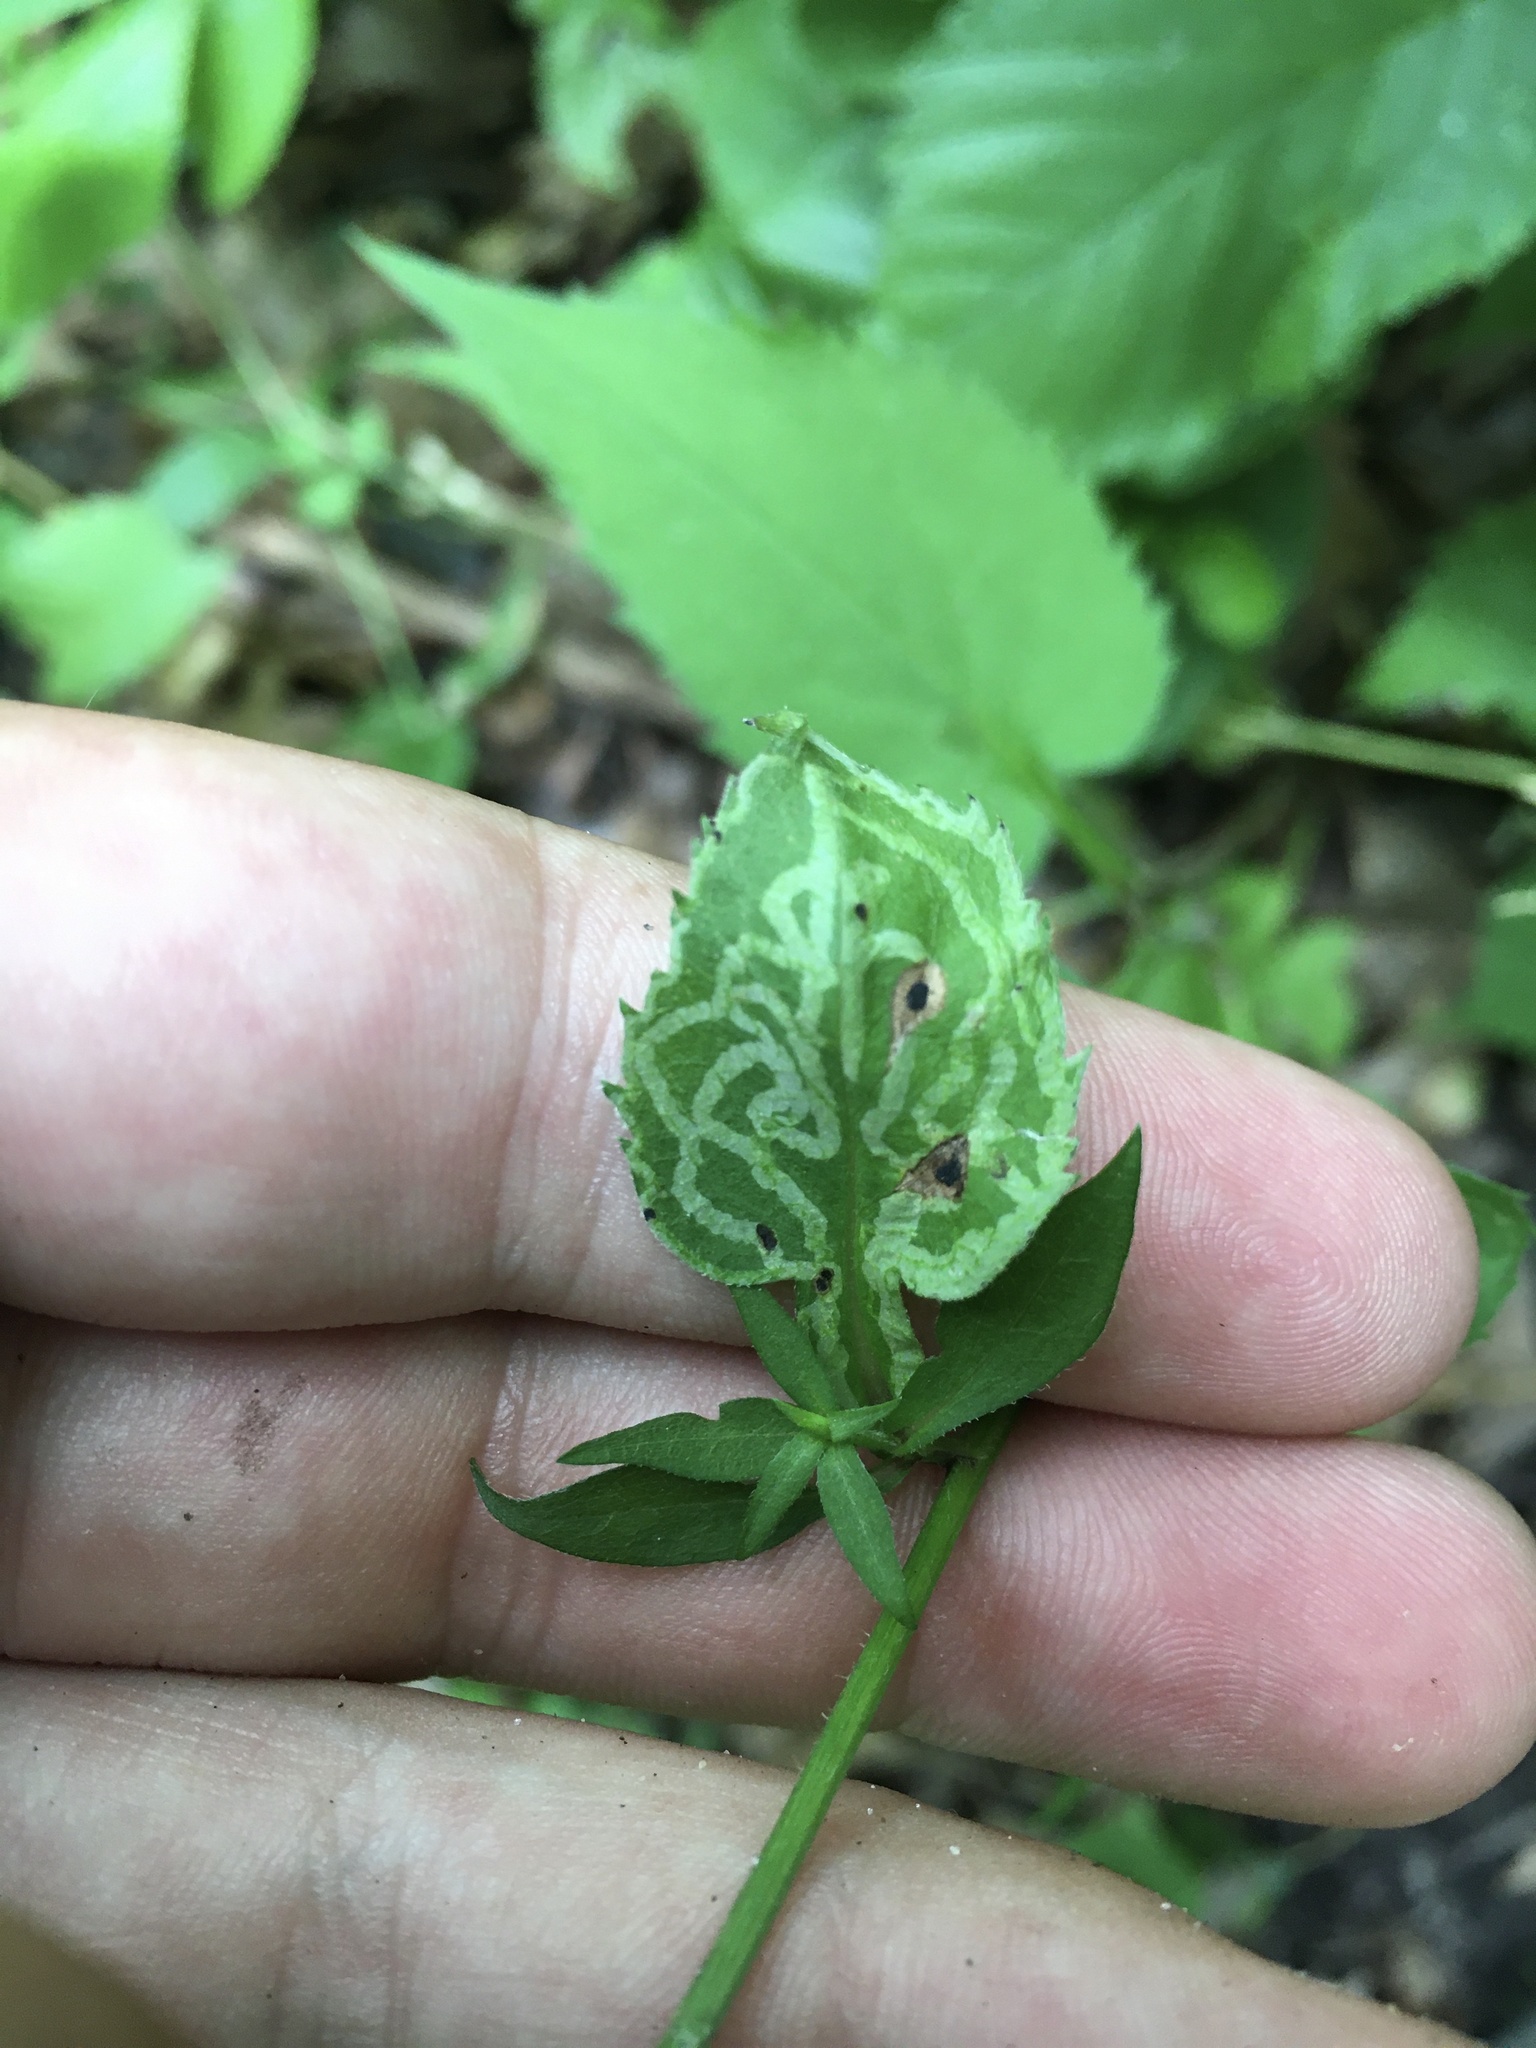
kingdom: Animalia
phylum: Arthropoda
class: Insecta
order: Diptera
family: Agromyzidae
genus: Ophiomyia
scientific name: Ophiomyia parda
